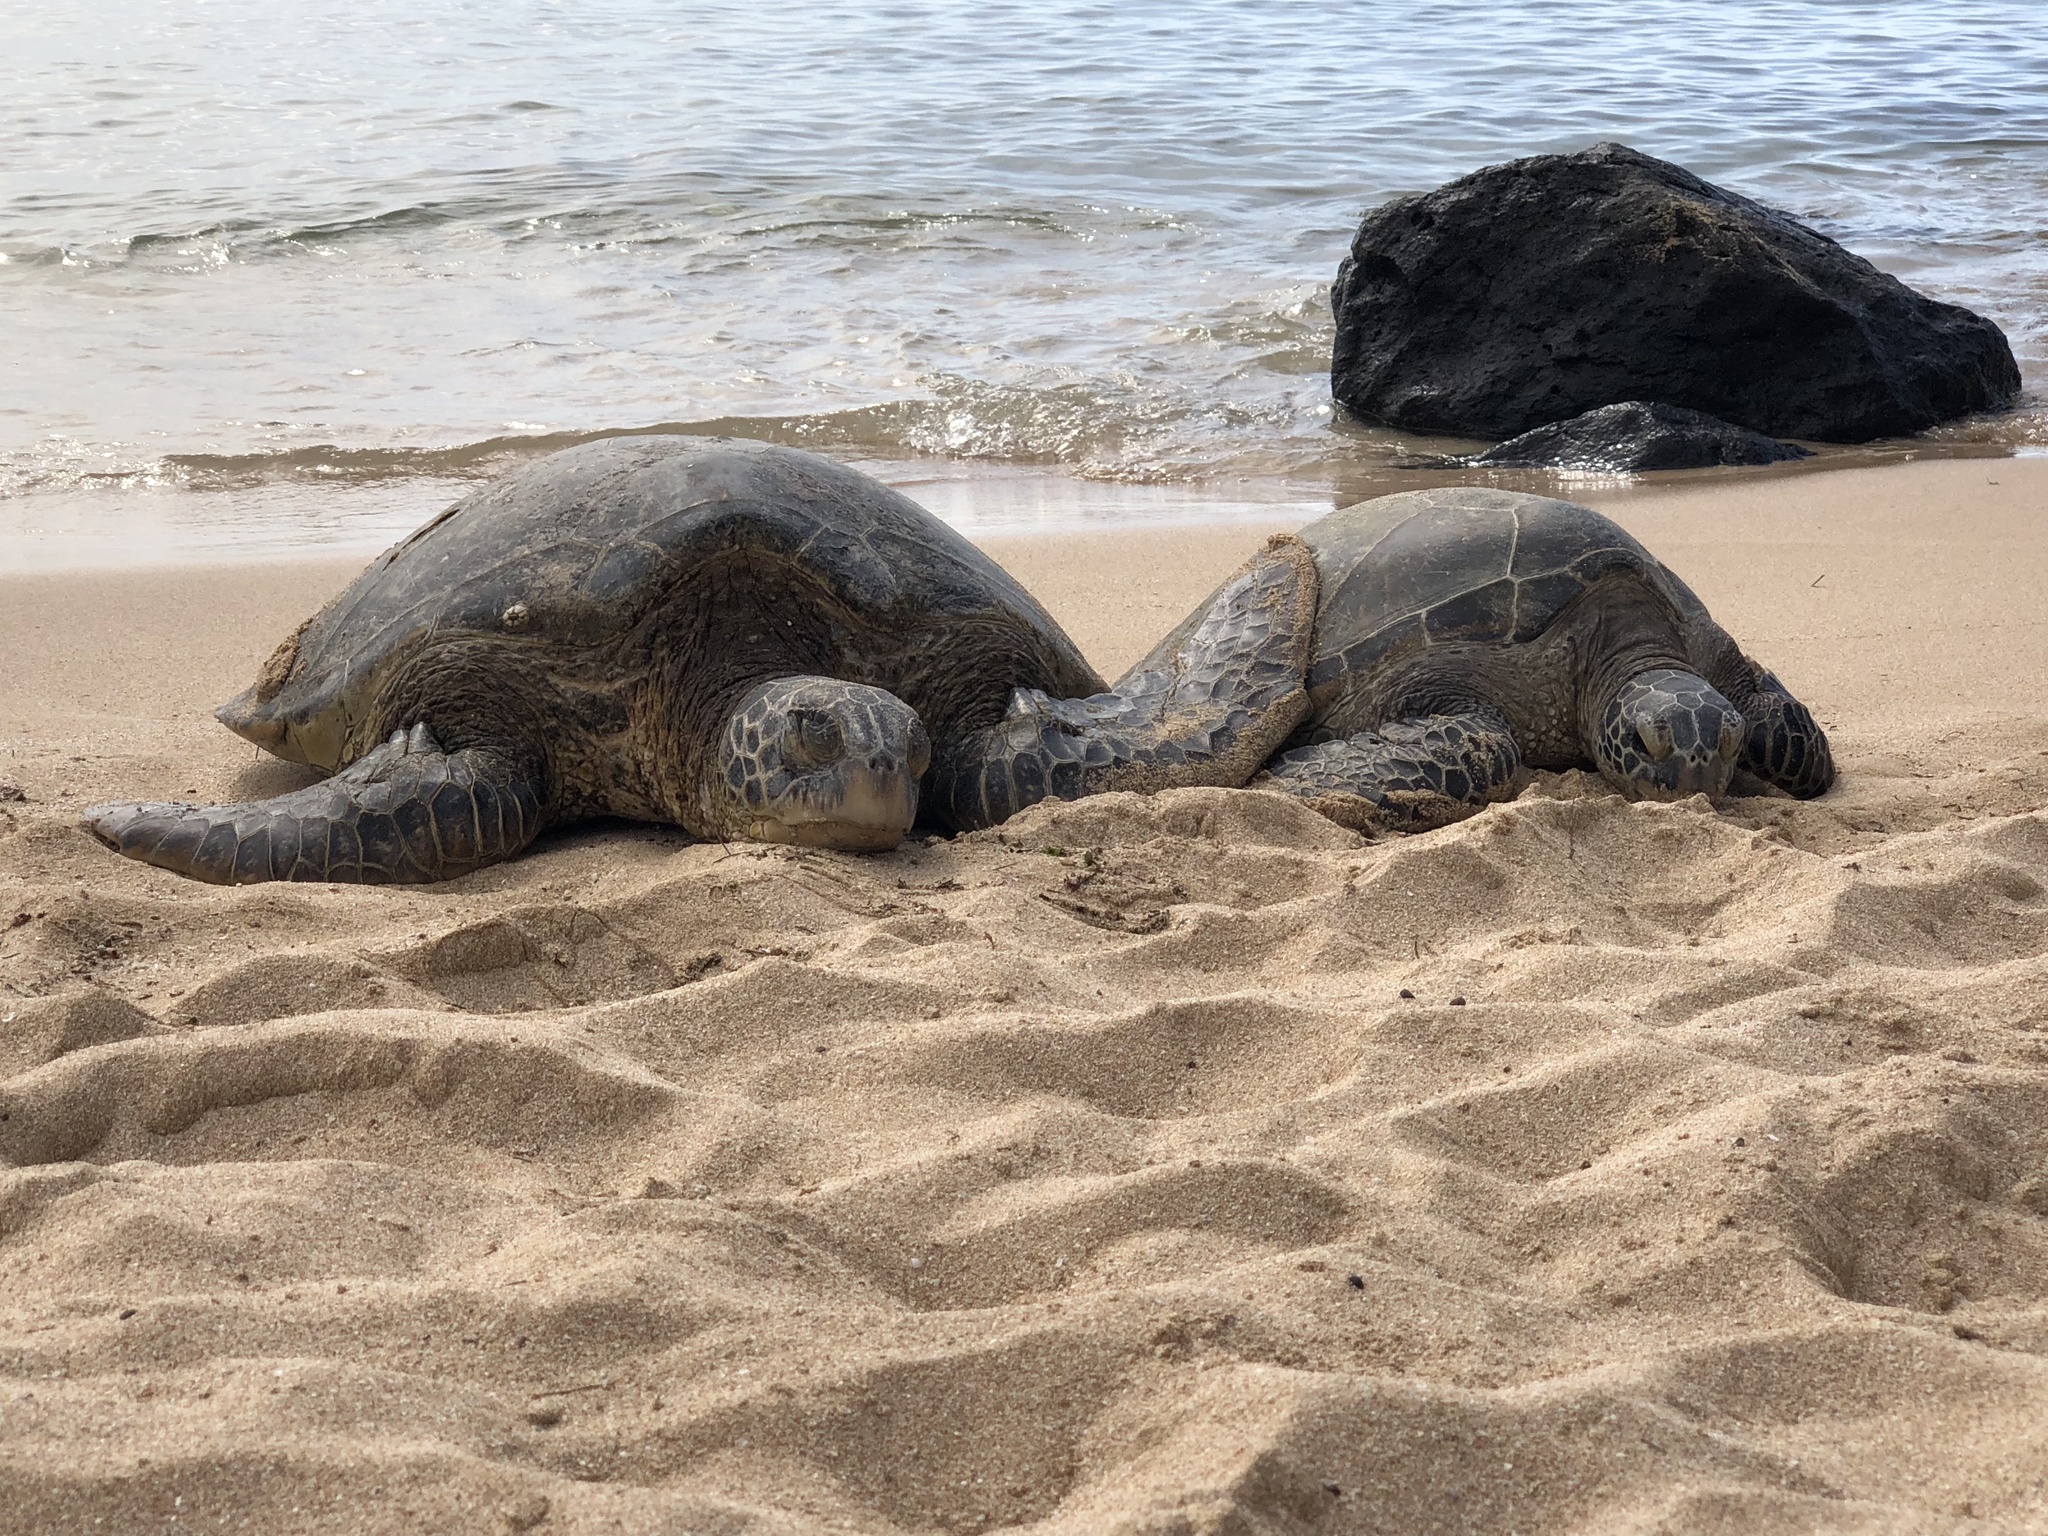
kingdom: Animalia
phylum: Chordata
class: Testudines
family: Cheloniidae
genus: Chelonia
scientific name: Chelonia mydas
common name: Green turtle
